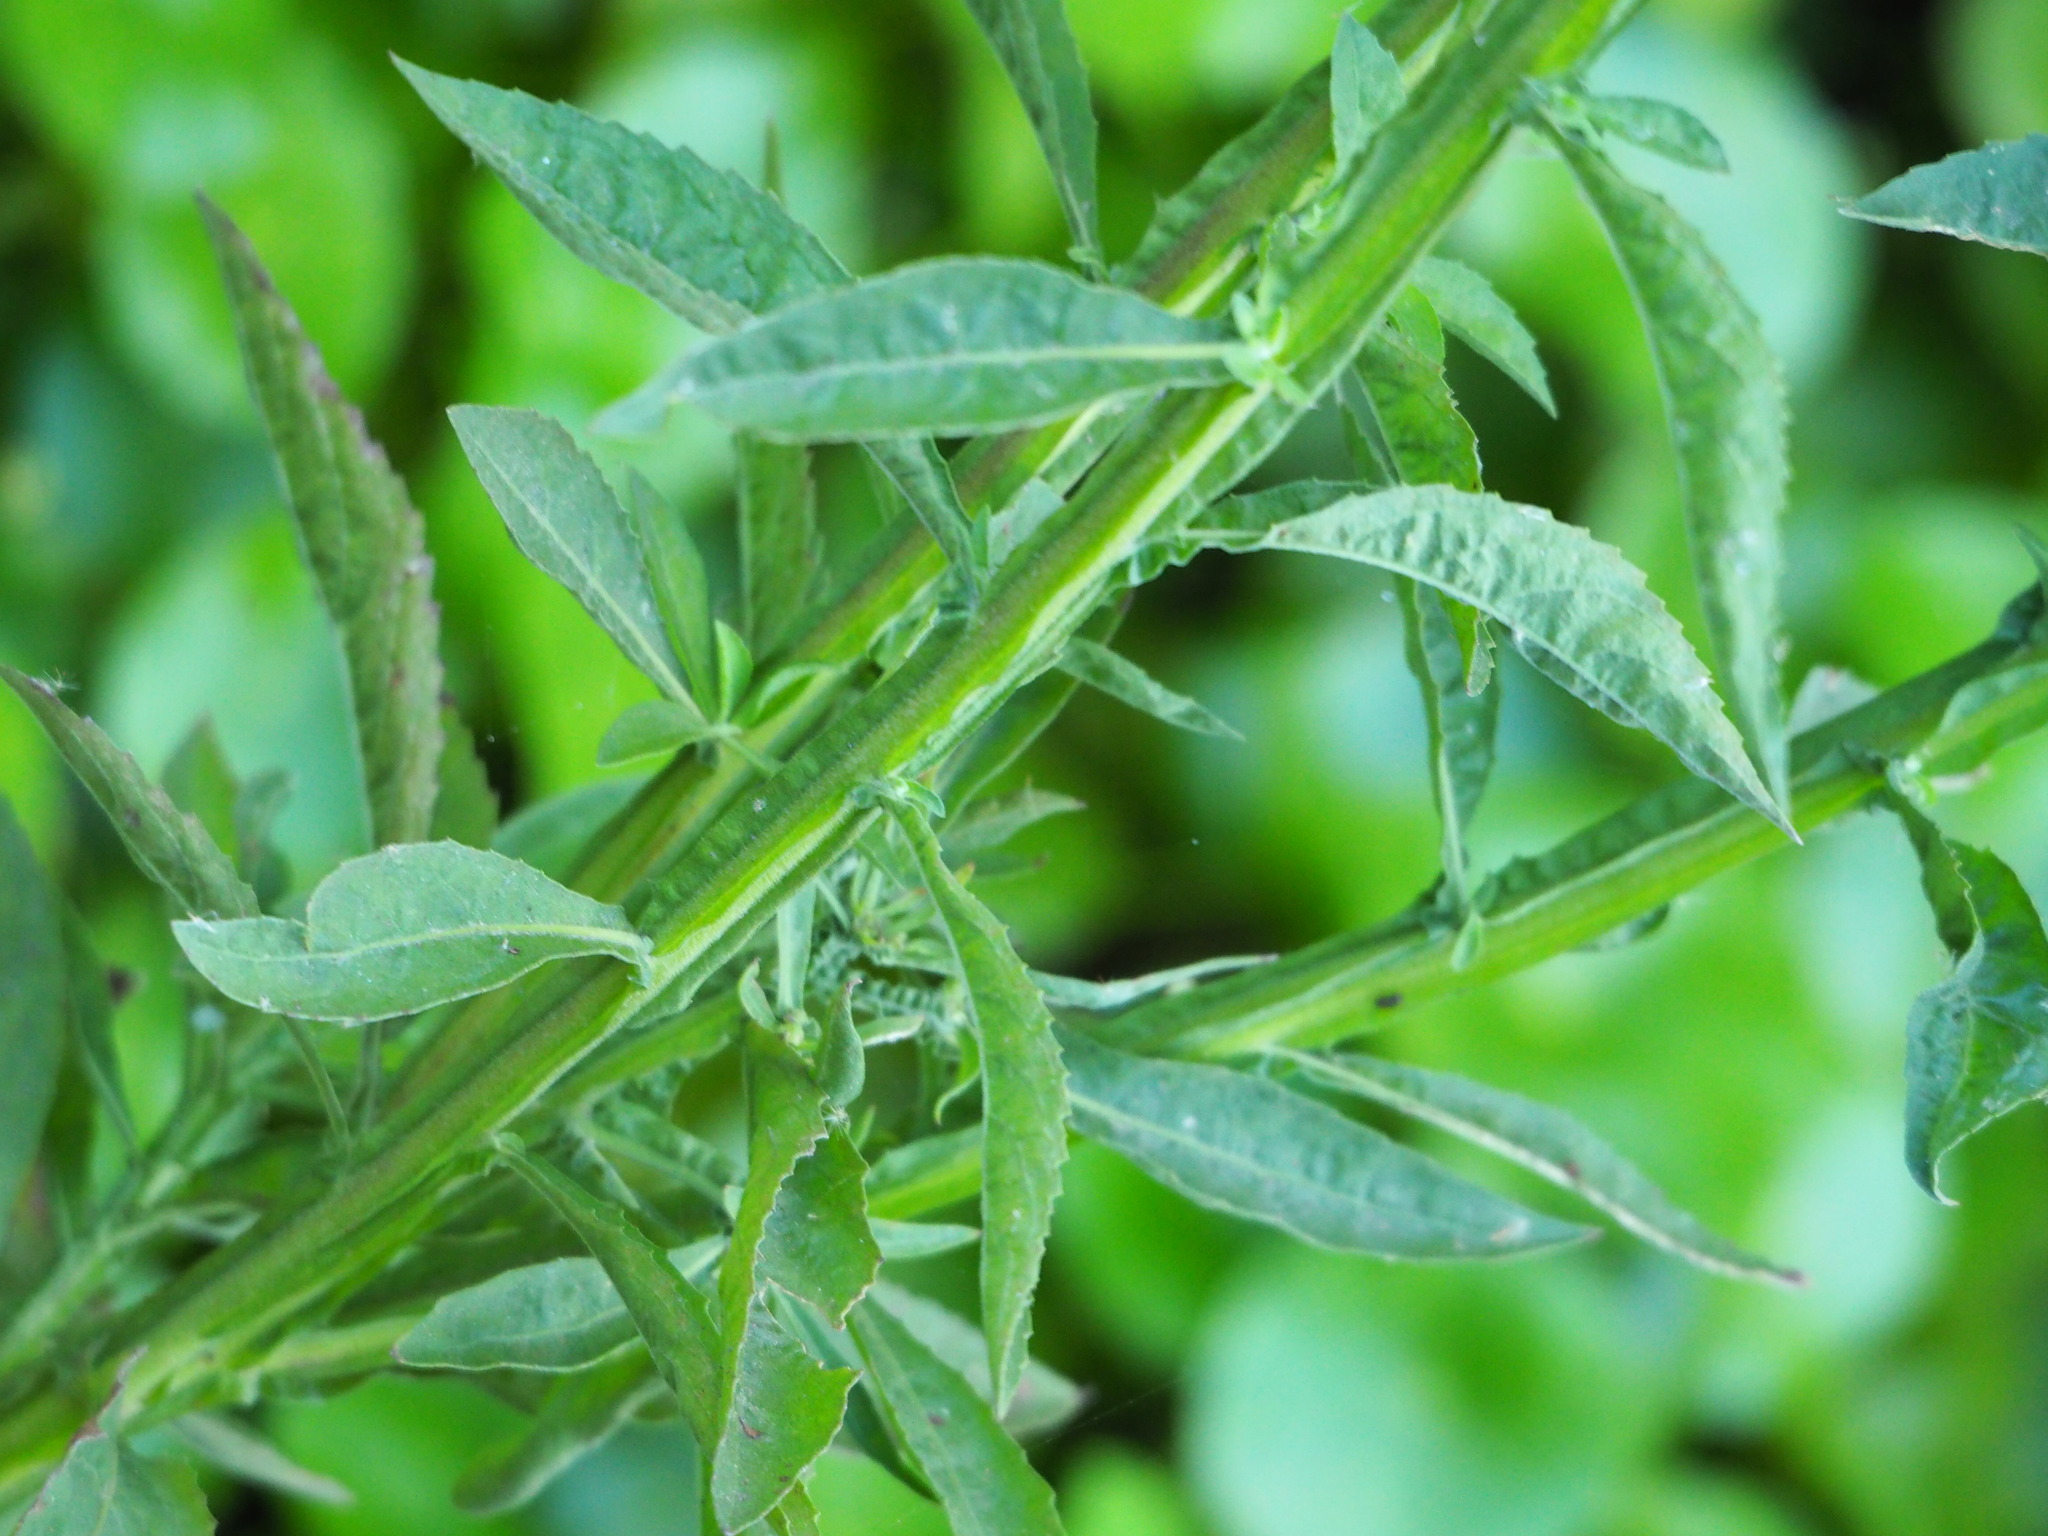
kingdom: Plantae
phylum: Tracheophyta
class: Magnoliopsida
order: Asterales
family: Asteraceae
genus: Pluchea
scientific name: Pluchea sagittalis
